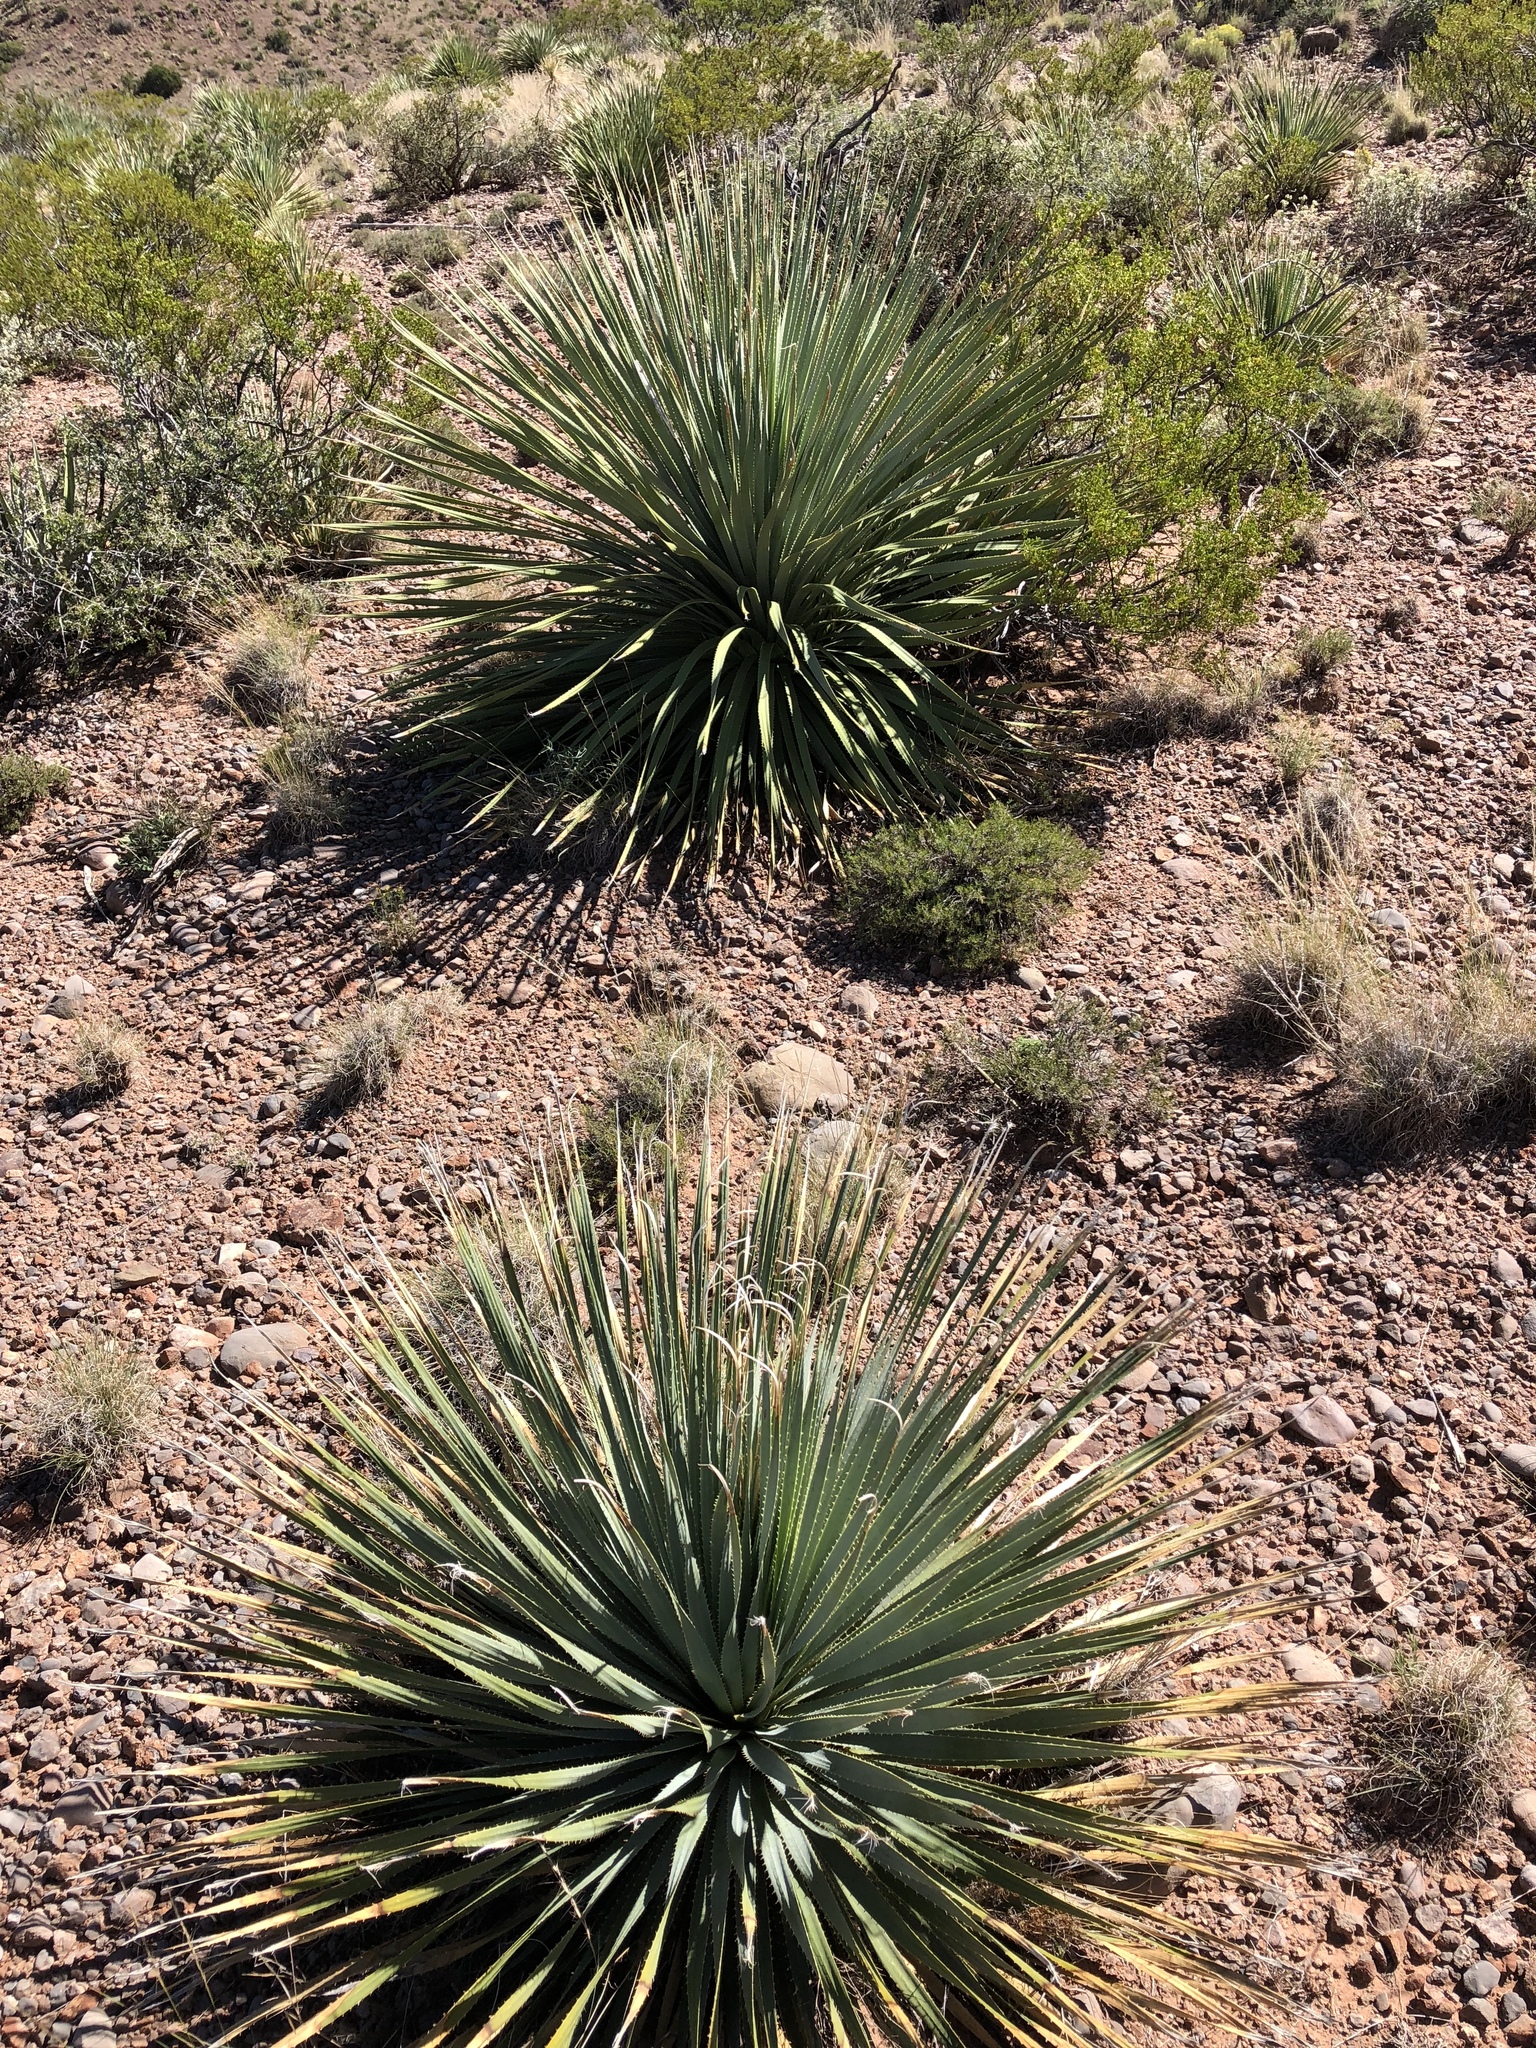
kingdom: Plantae
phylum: Tracheophyta
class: Liliopsida
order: Asparagales
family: Asparagaceae
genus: Dasylirion
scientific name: Dasylirion wheeleri
